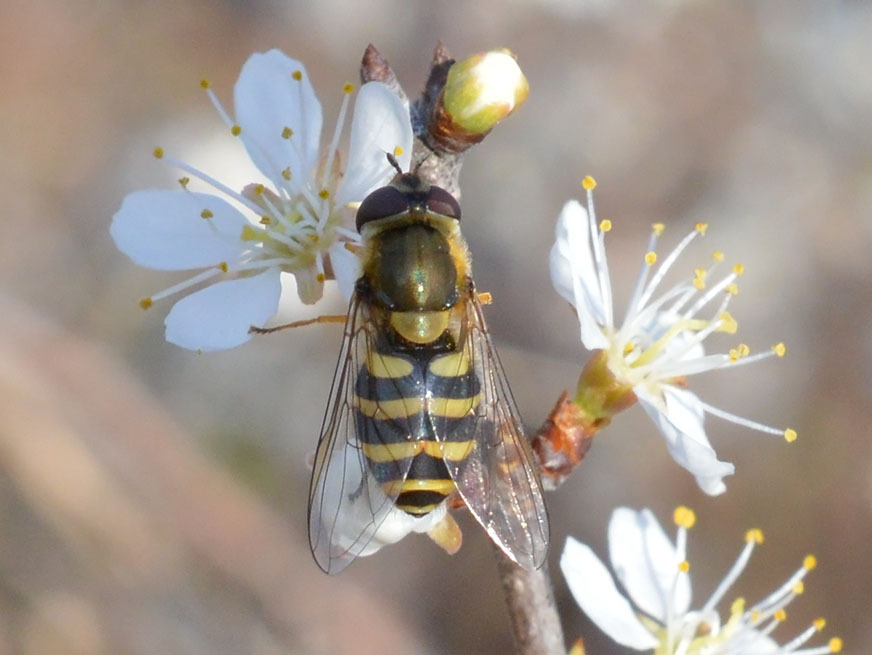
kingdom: Animalia
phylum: Arthropoda
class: Insecta
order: Diptera
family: Syrphidae
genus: Syrphus
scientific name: Syrphus
